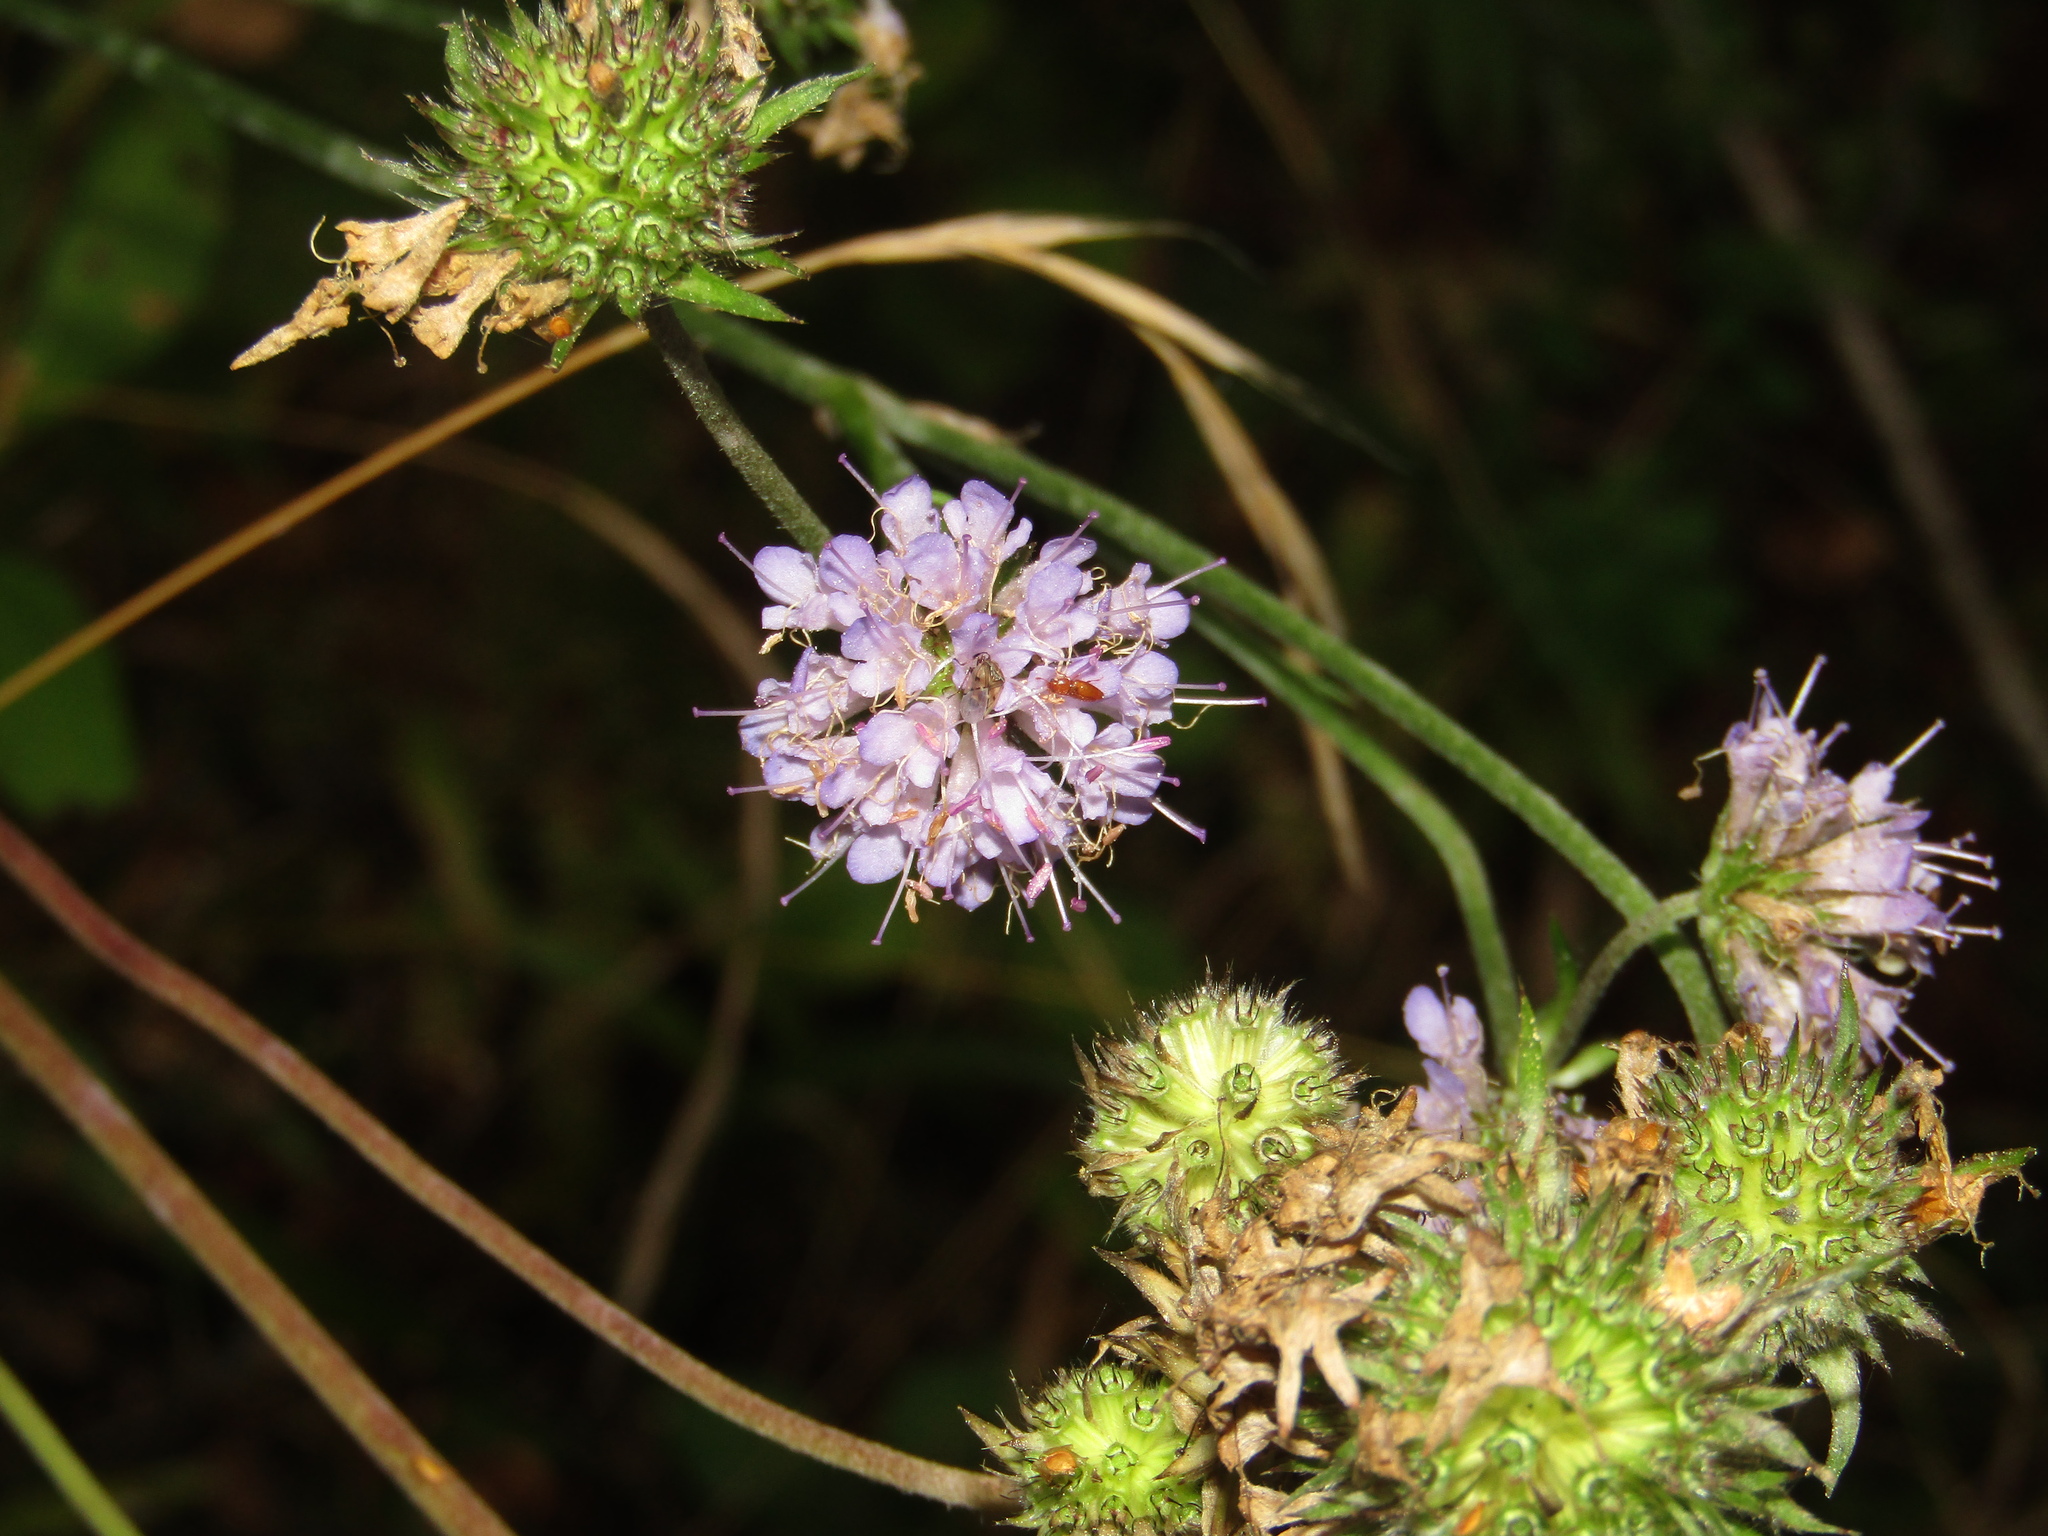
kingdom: Plantae
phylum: Tracheophyta
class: Magnoliopsida
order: Dipsacales
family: Caprifoliaceae
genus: Succisa
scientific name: Succisa pratensis
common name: Devil's-bit
